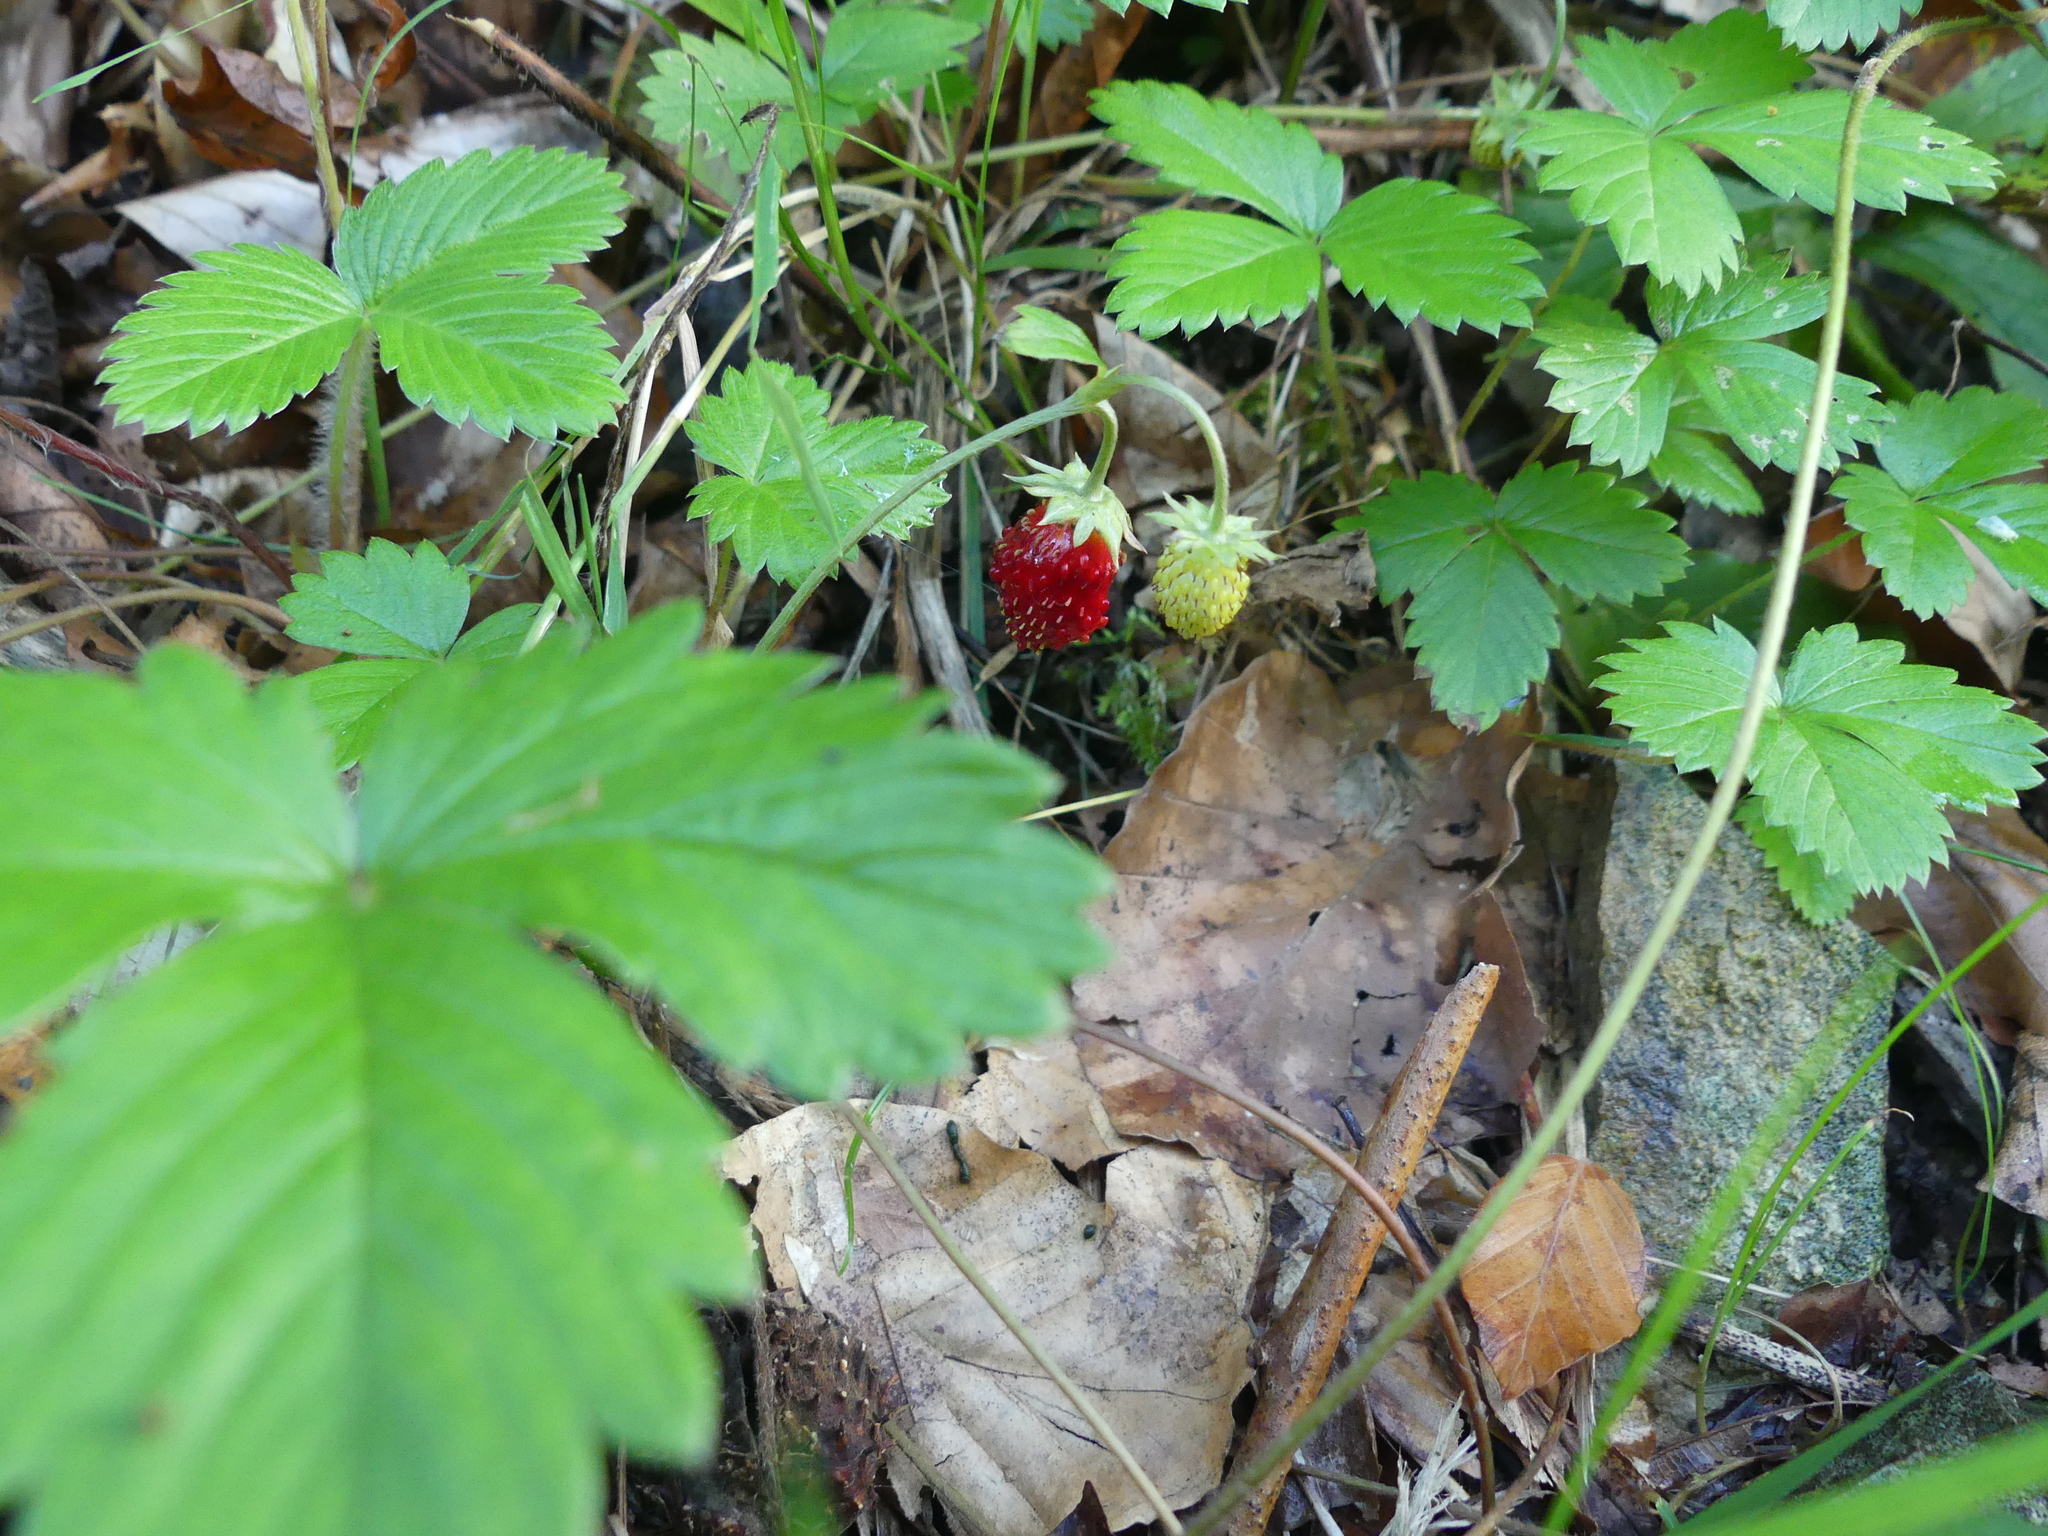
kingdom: Plantae
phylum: Tracheophyta
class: Magnoliopsida
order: Rosales
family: Rosaceae
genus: Fragaria
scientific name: Fragaria vesca
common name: Wild strawberry
